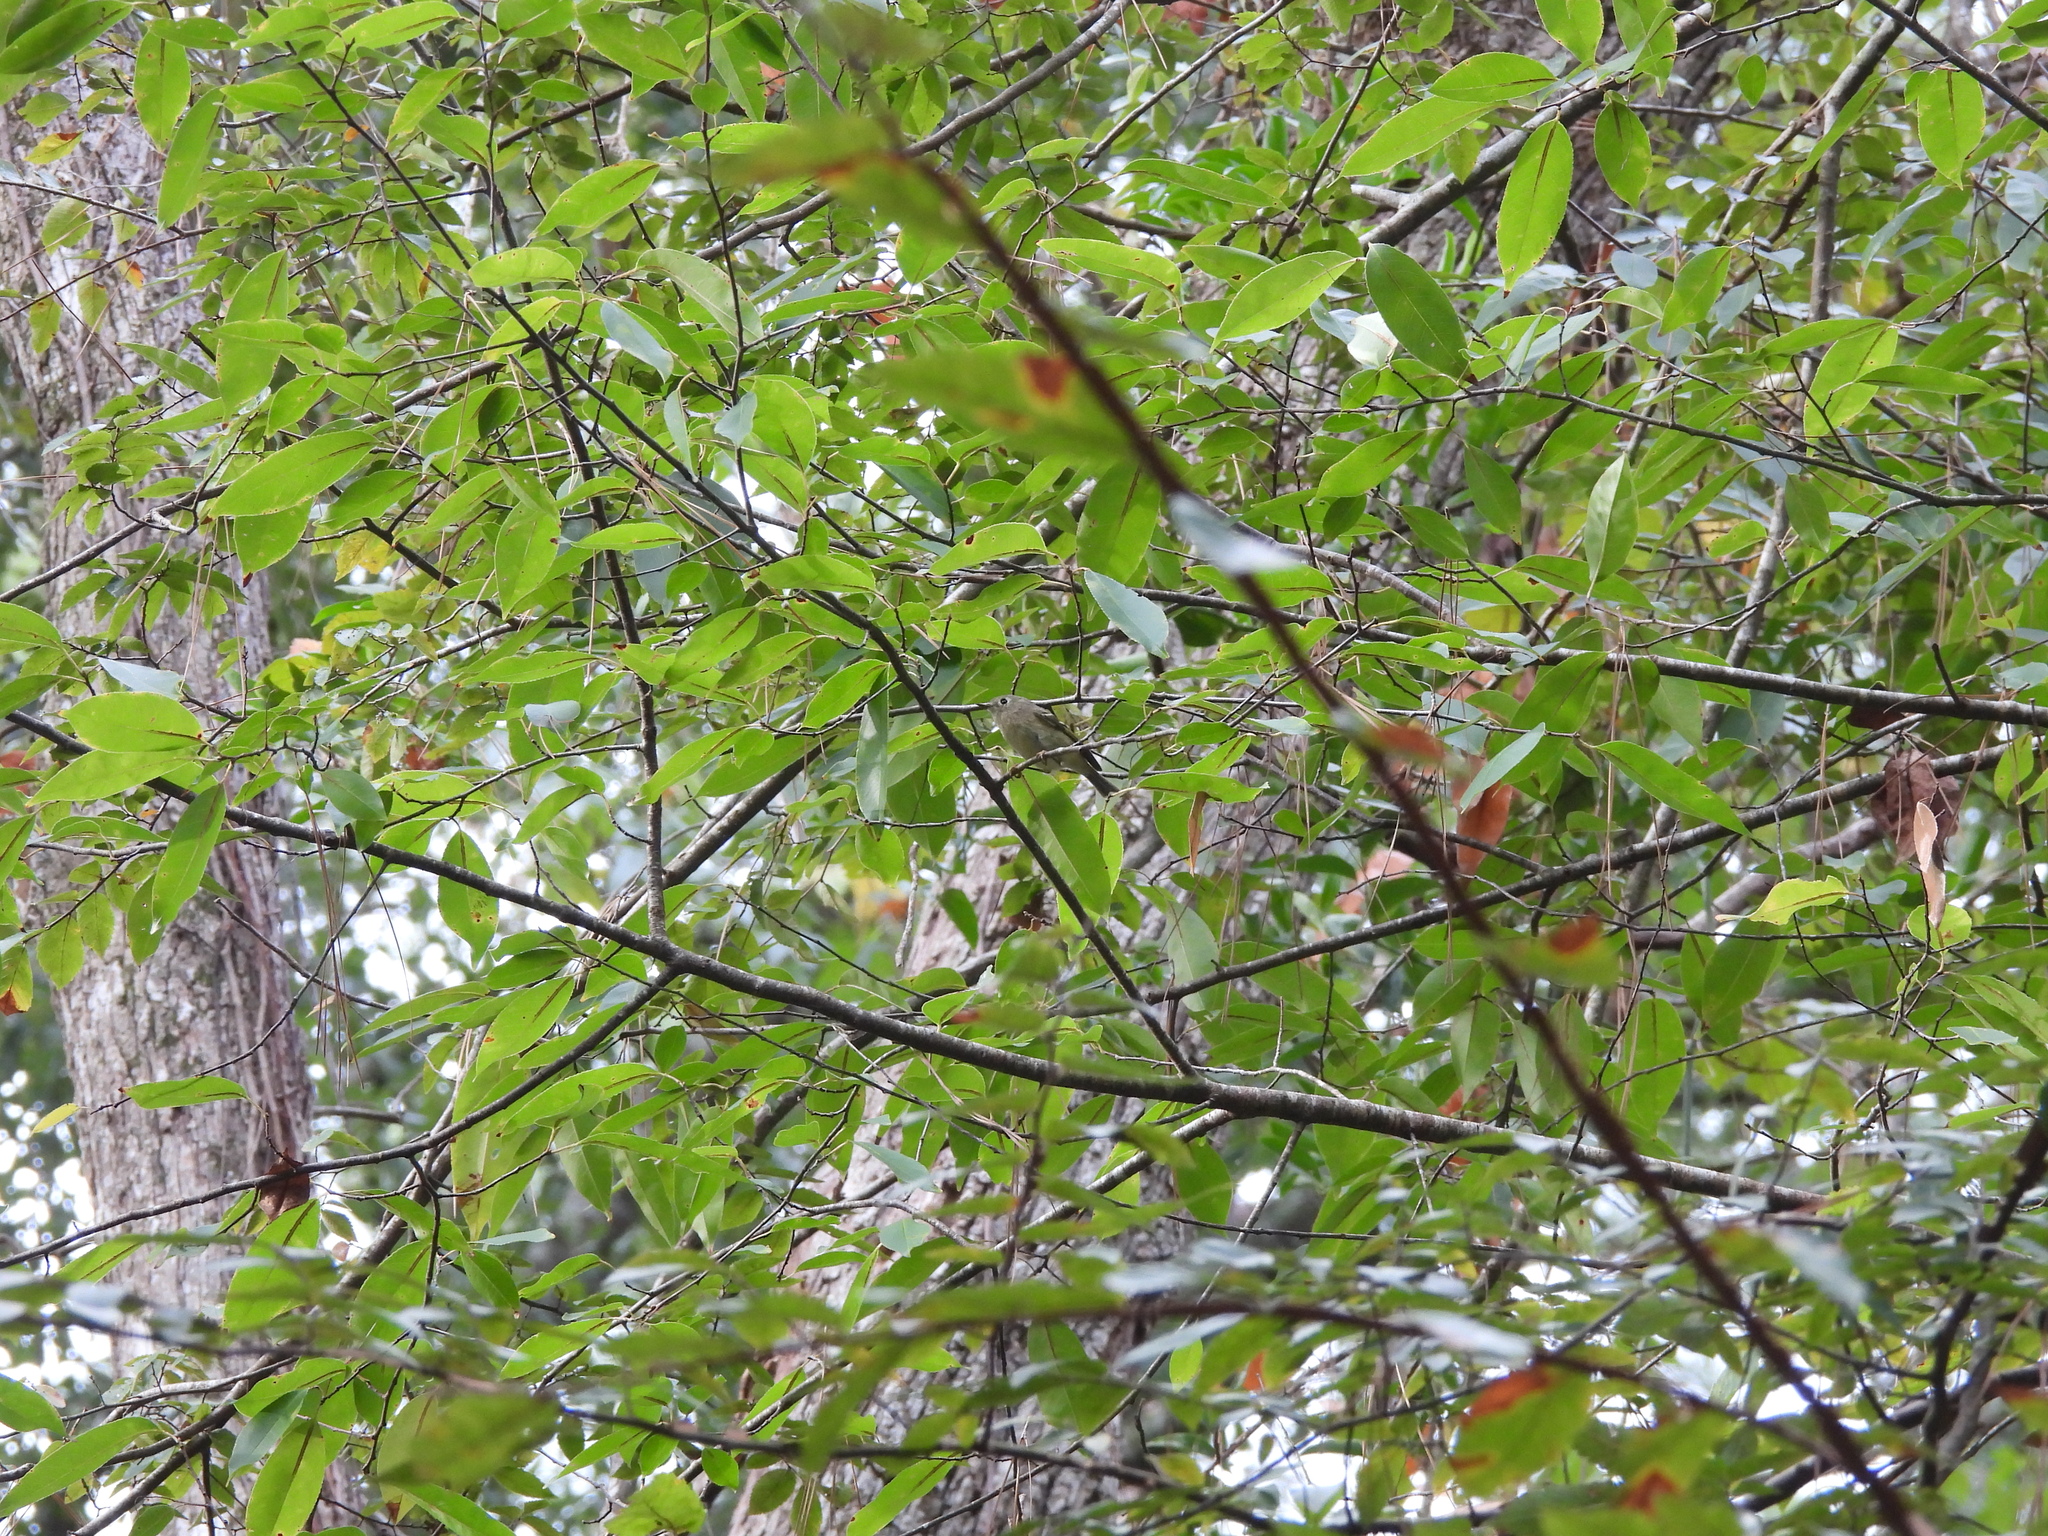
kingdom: Animalia
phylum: Chordata
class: Aves
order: Passeriformes
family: Regulidae
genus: Regulus
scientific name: Regulus calendula
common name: Ruby-crowned kinglet
